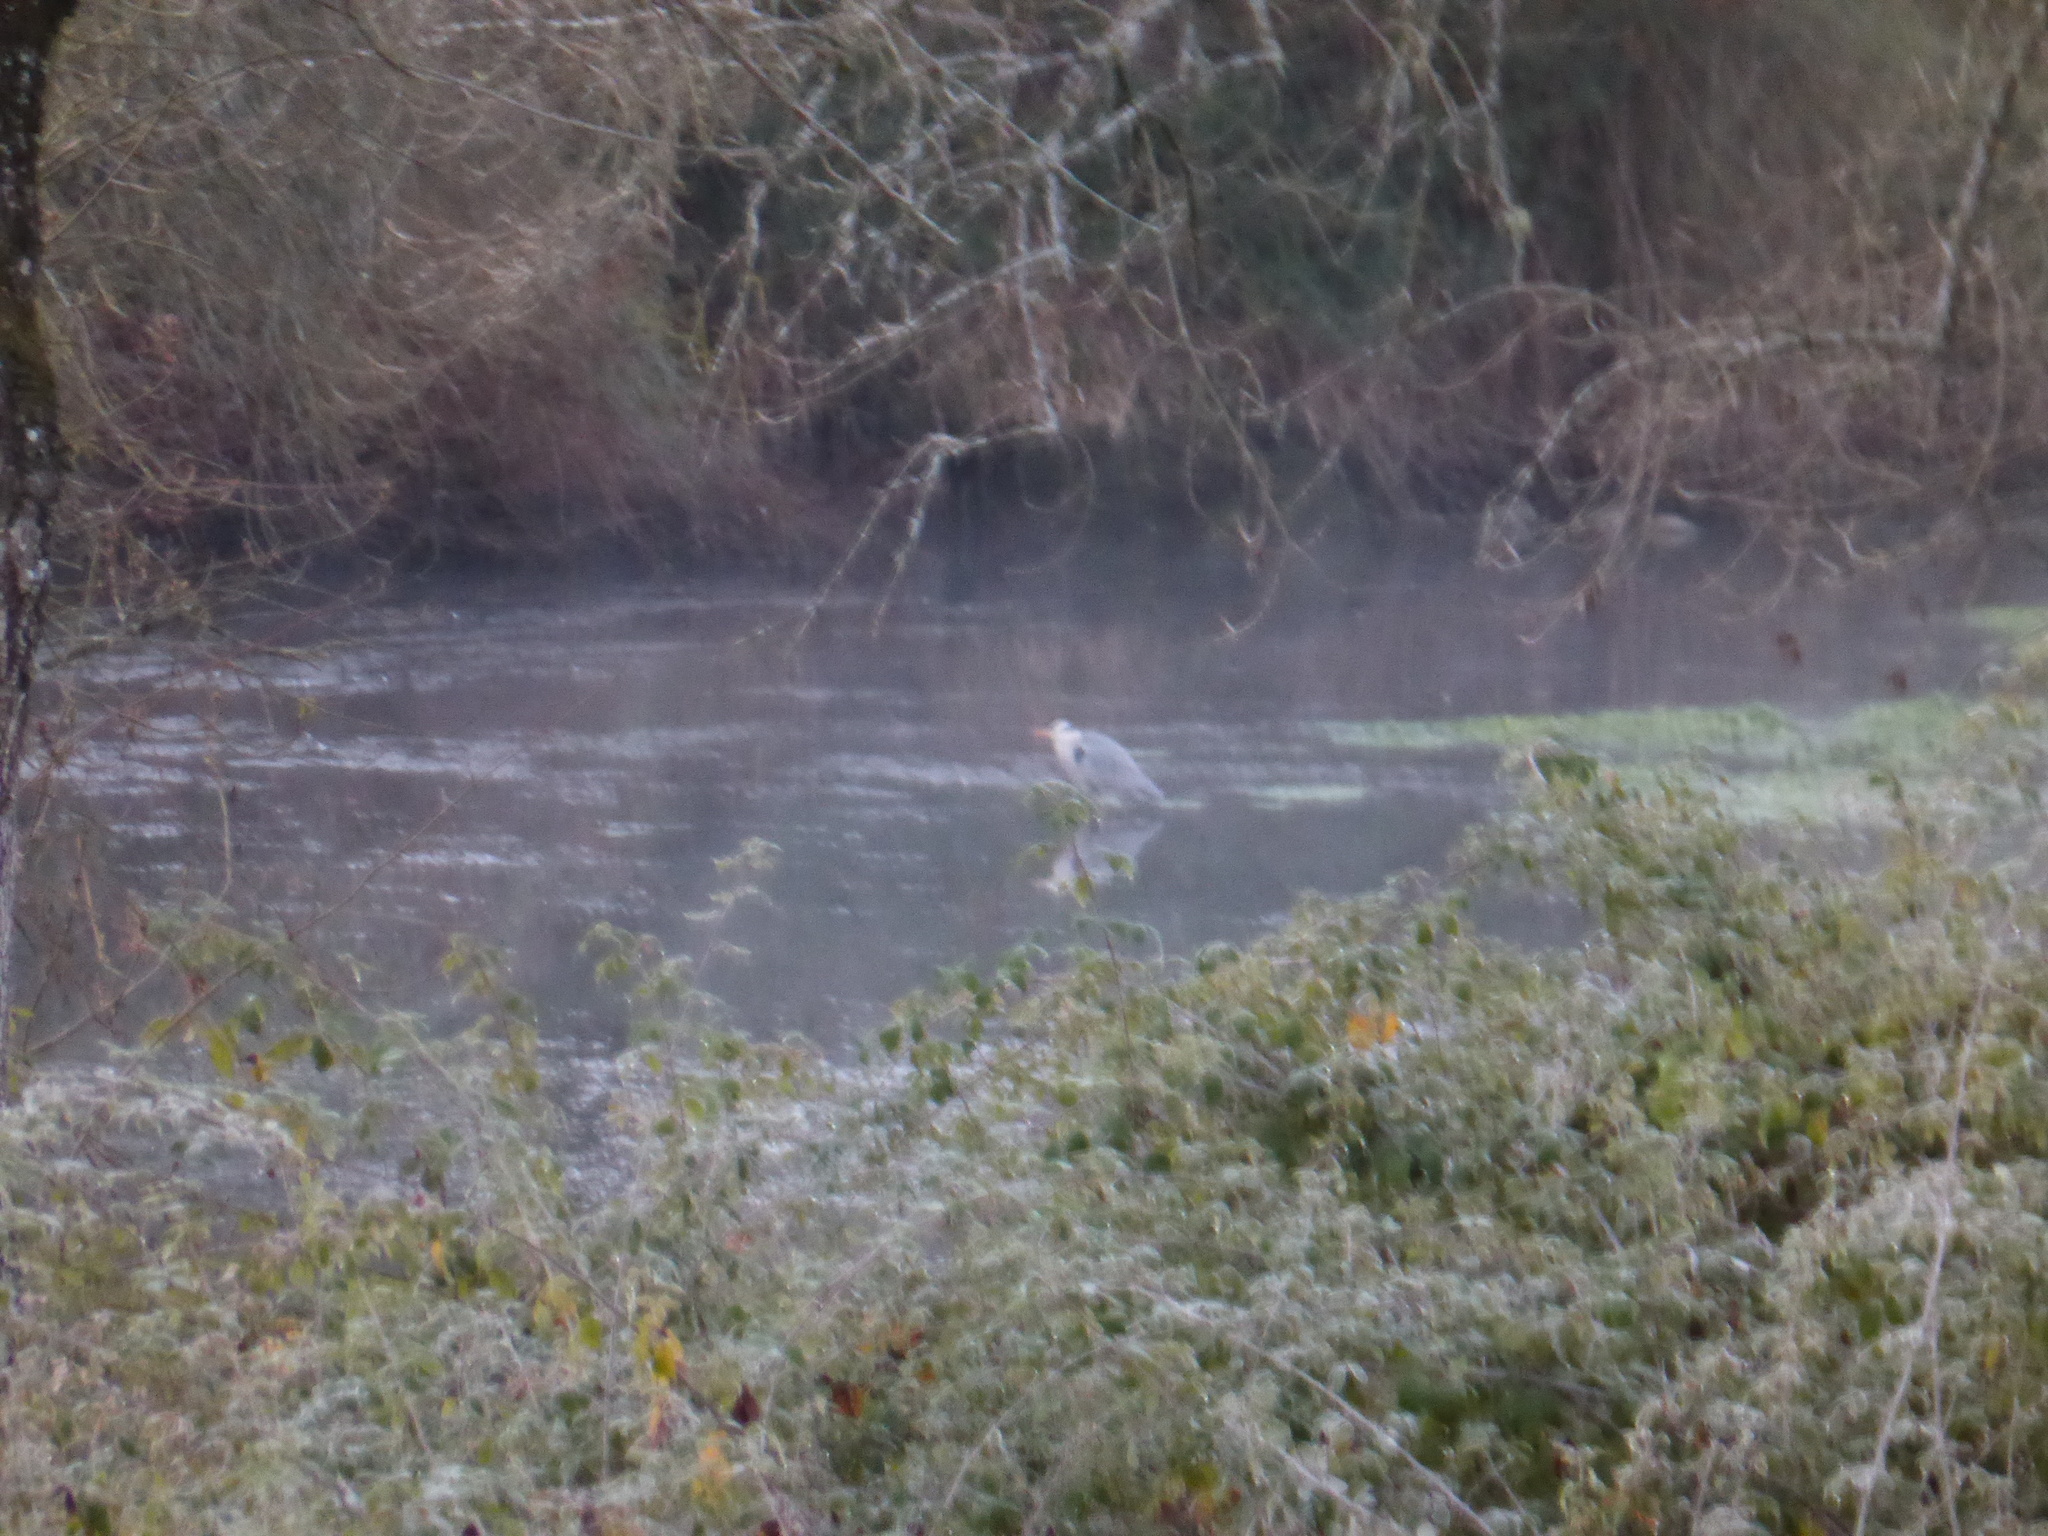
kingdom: Animalia
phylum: Chordata
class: Aves
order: Pelecaniformes
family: Ardeidae
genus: Ardea
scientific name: Ardea cinerea
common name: Grey heron
